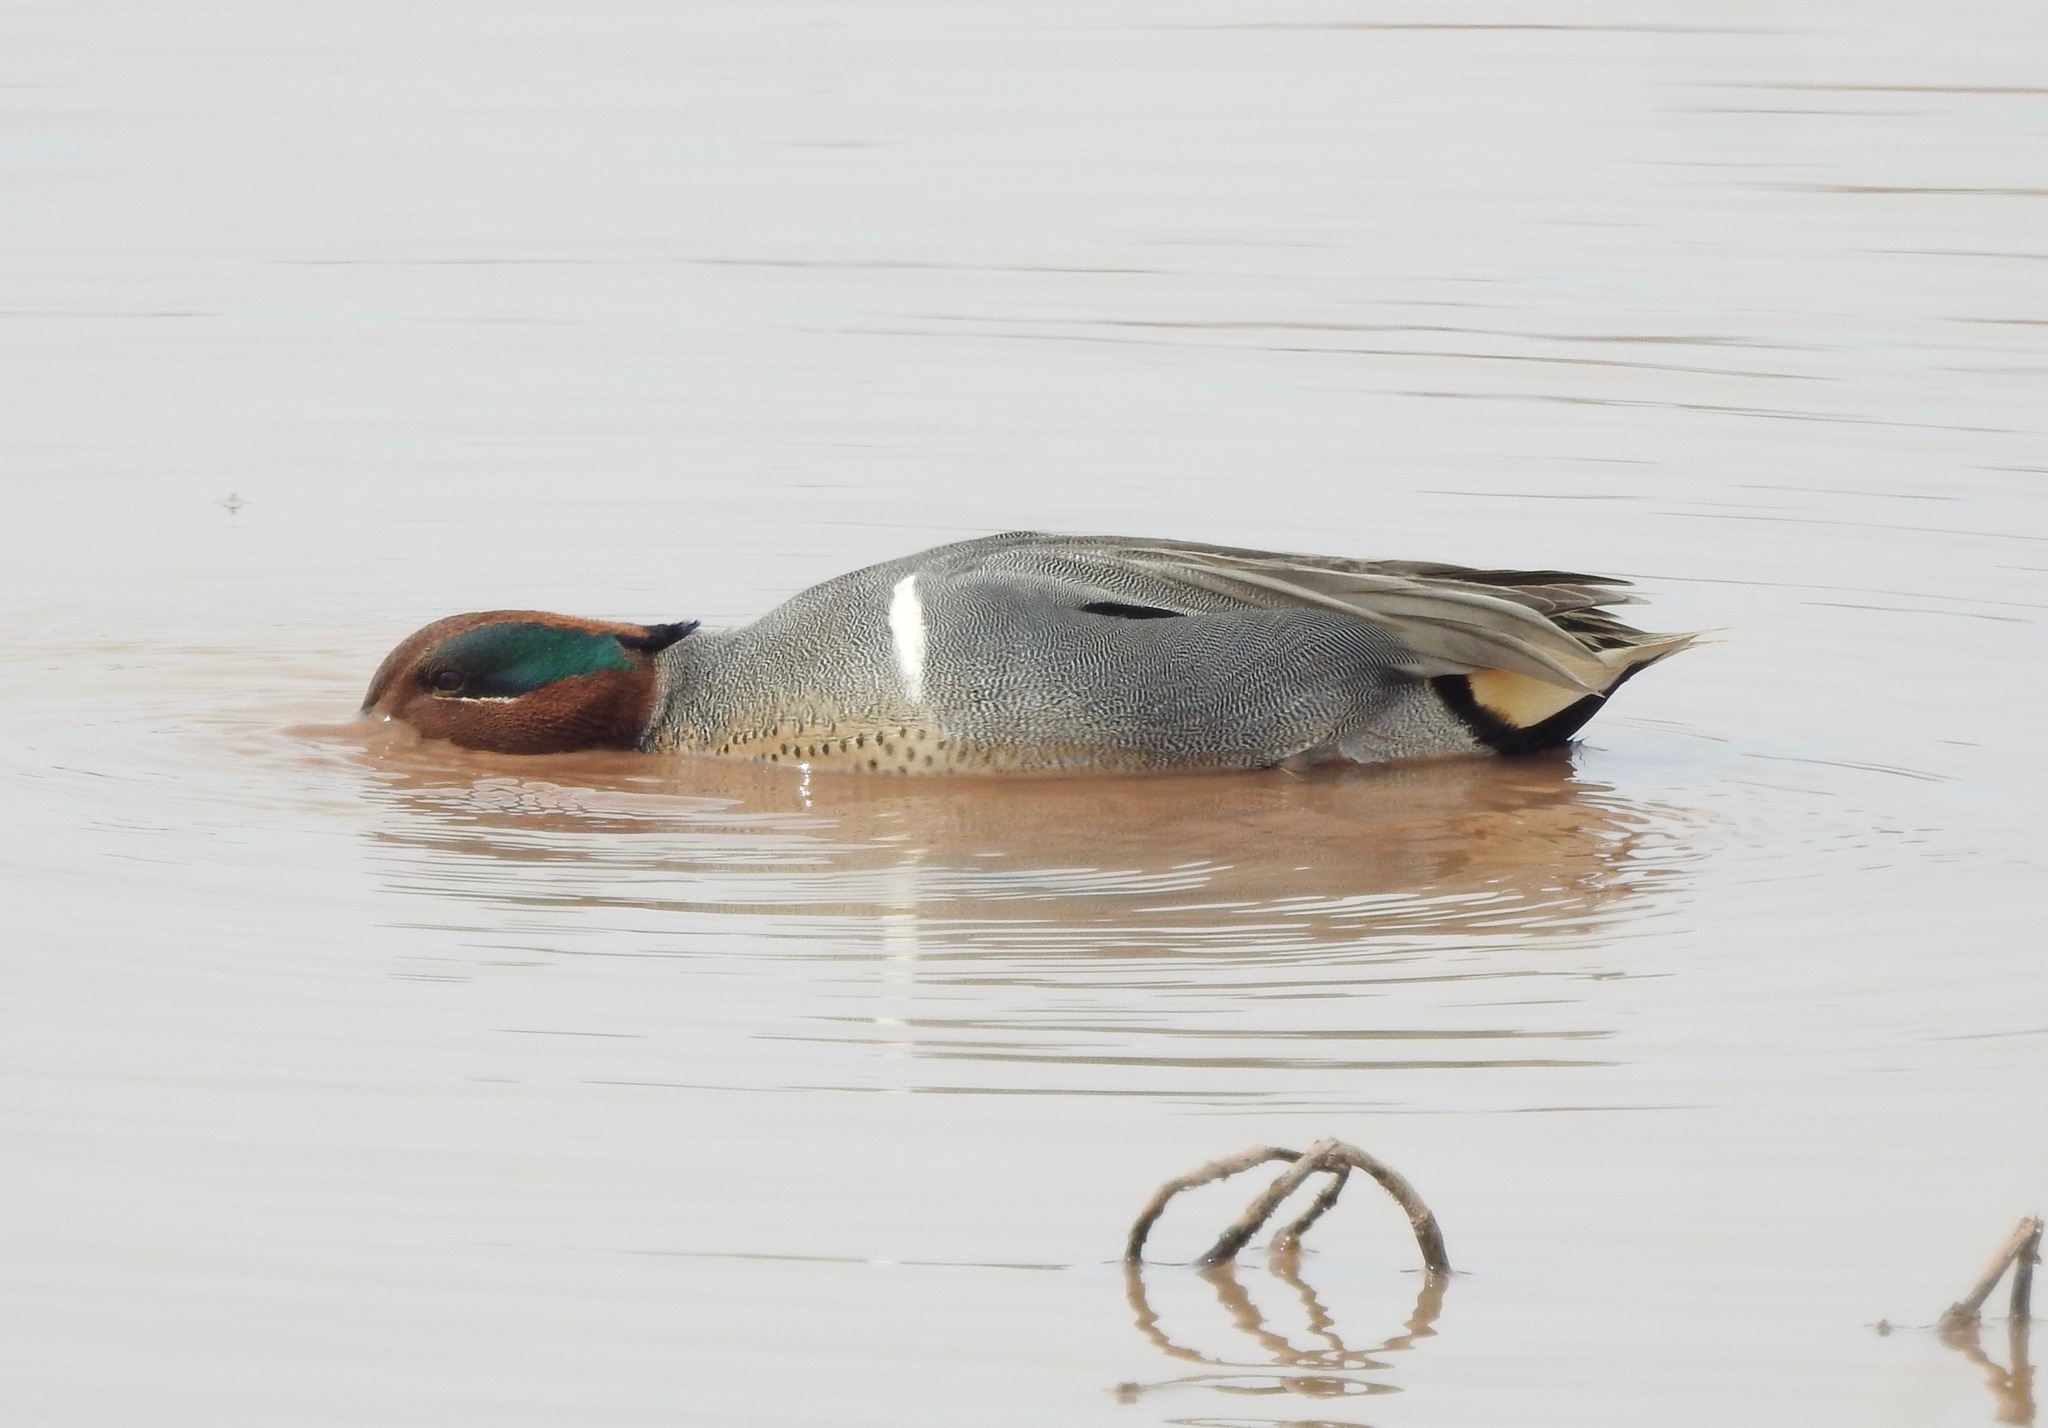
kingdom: Animalia
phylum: Chordata
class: Aves
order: Anseriformes
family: Anatidae
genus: Anas
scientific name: Anas crecca
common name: Eurasian teal
